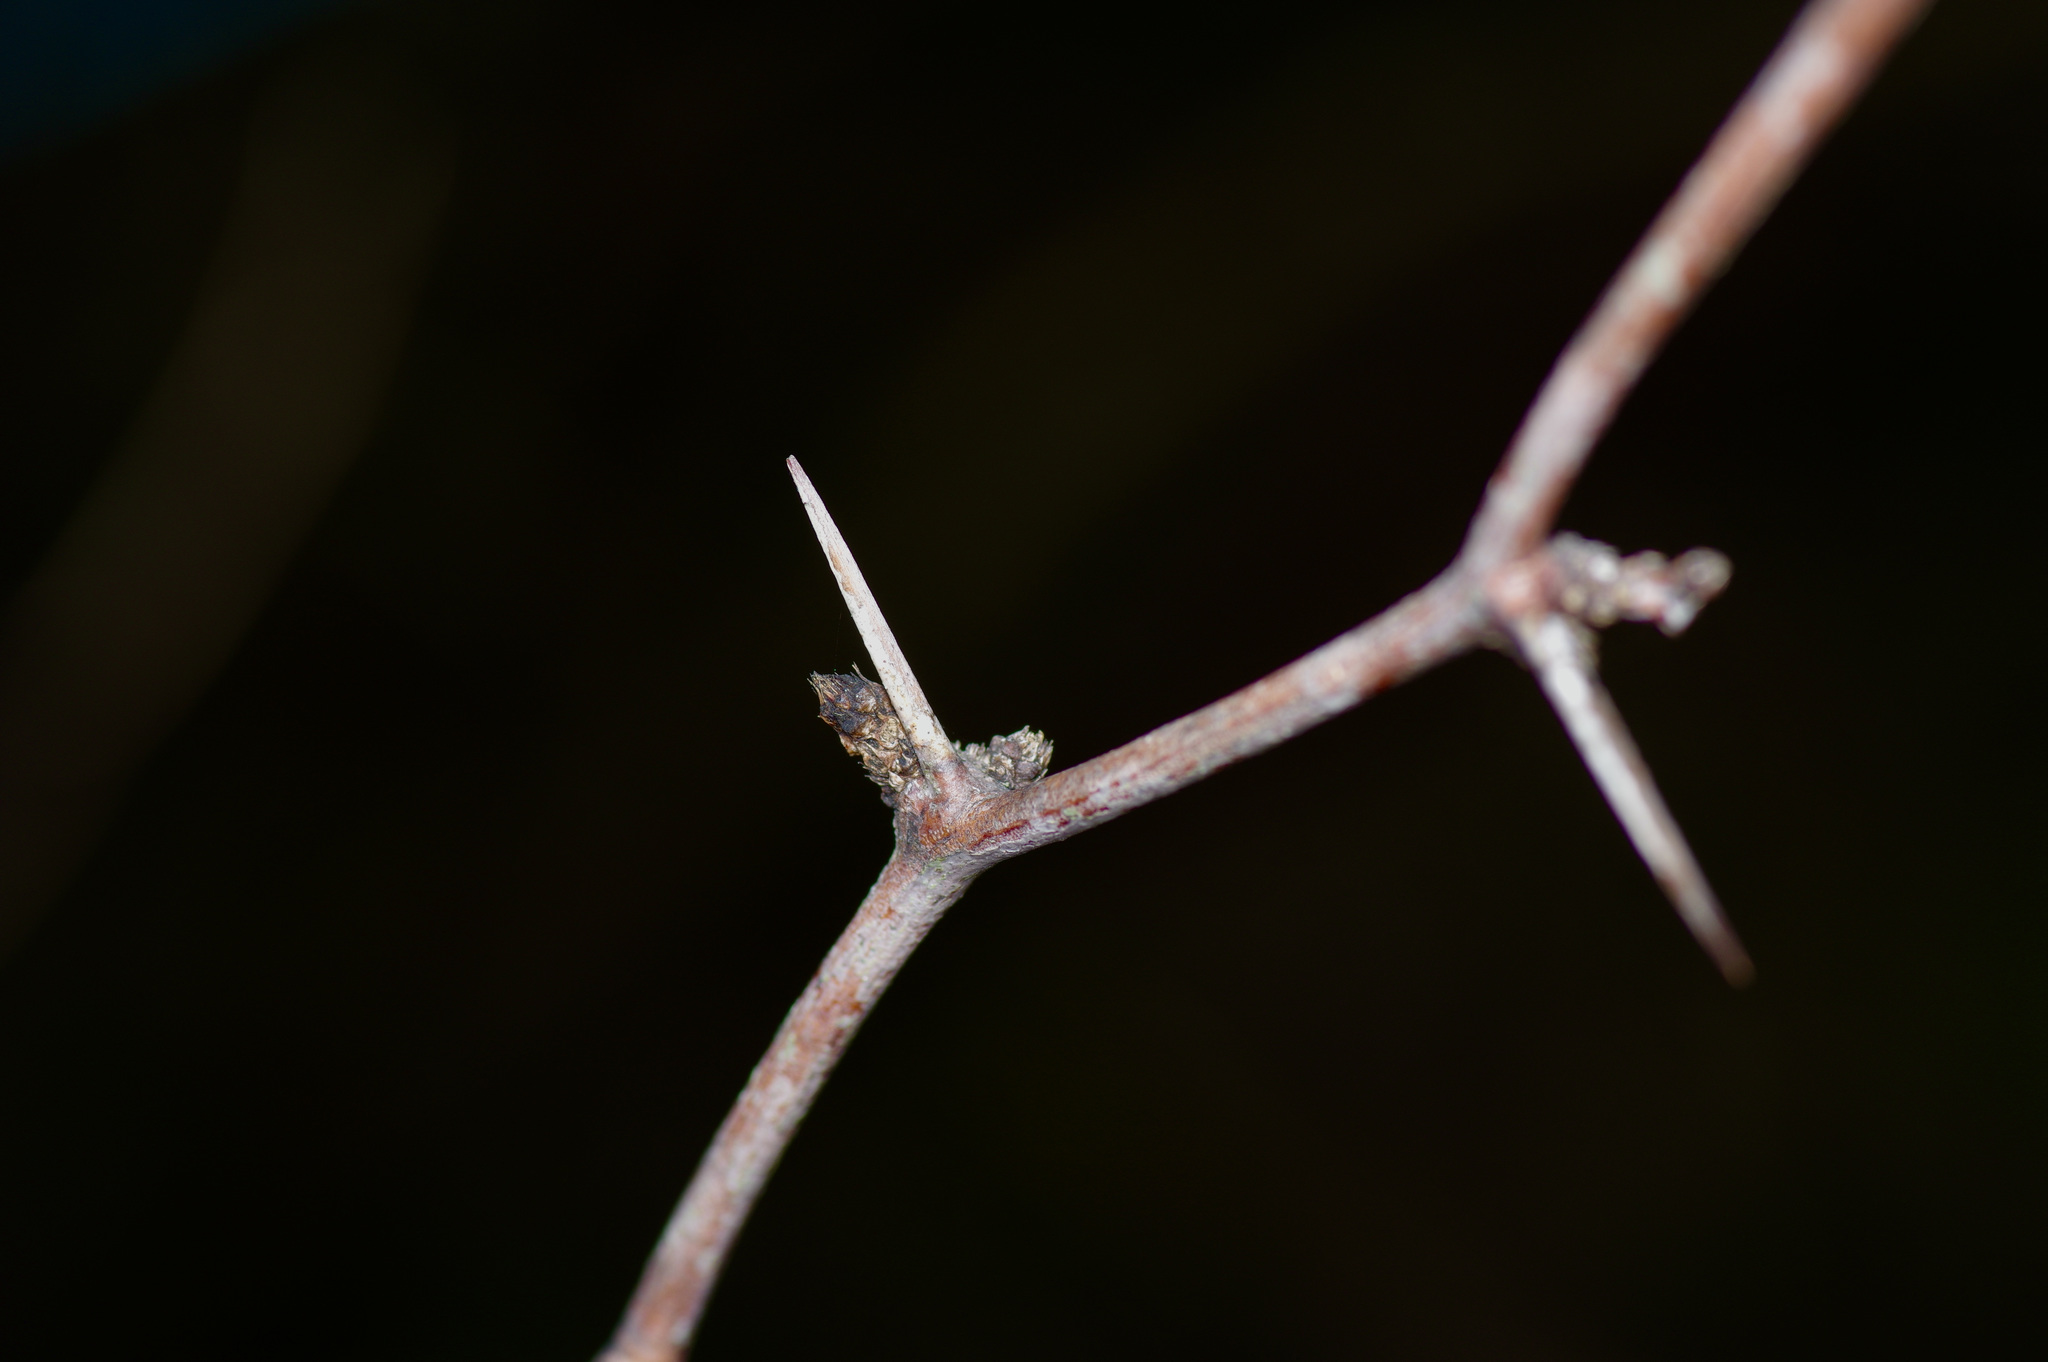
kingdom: Plantae
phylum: Tracheophyta
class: Magnoliopsida
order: Fabales
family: Fabaceae
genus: Prosopis
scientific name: Prosopis glandulosa
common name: Honey mesquite
